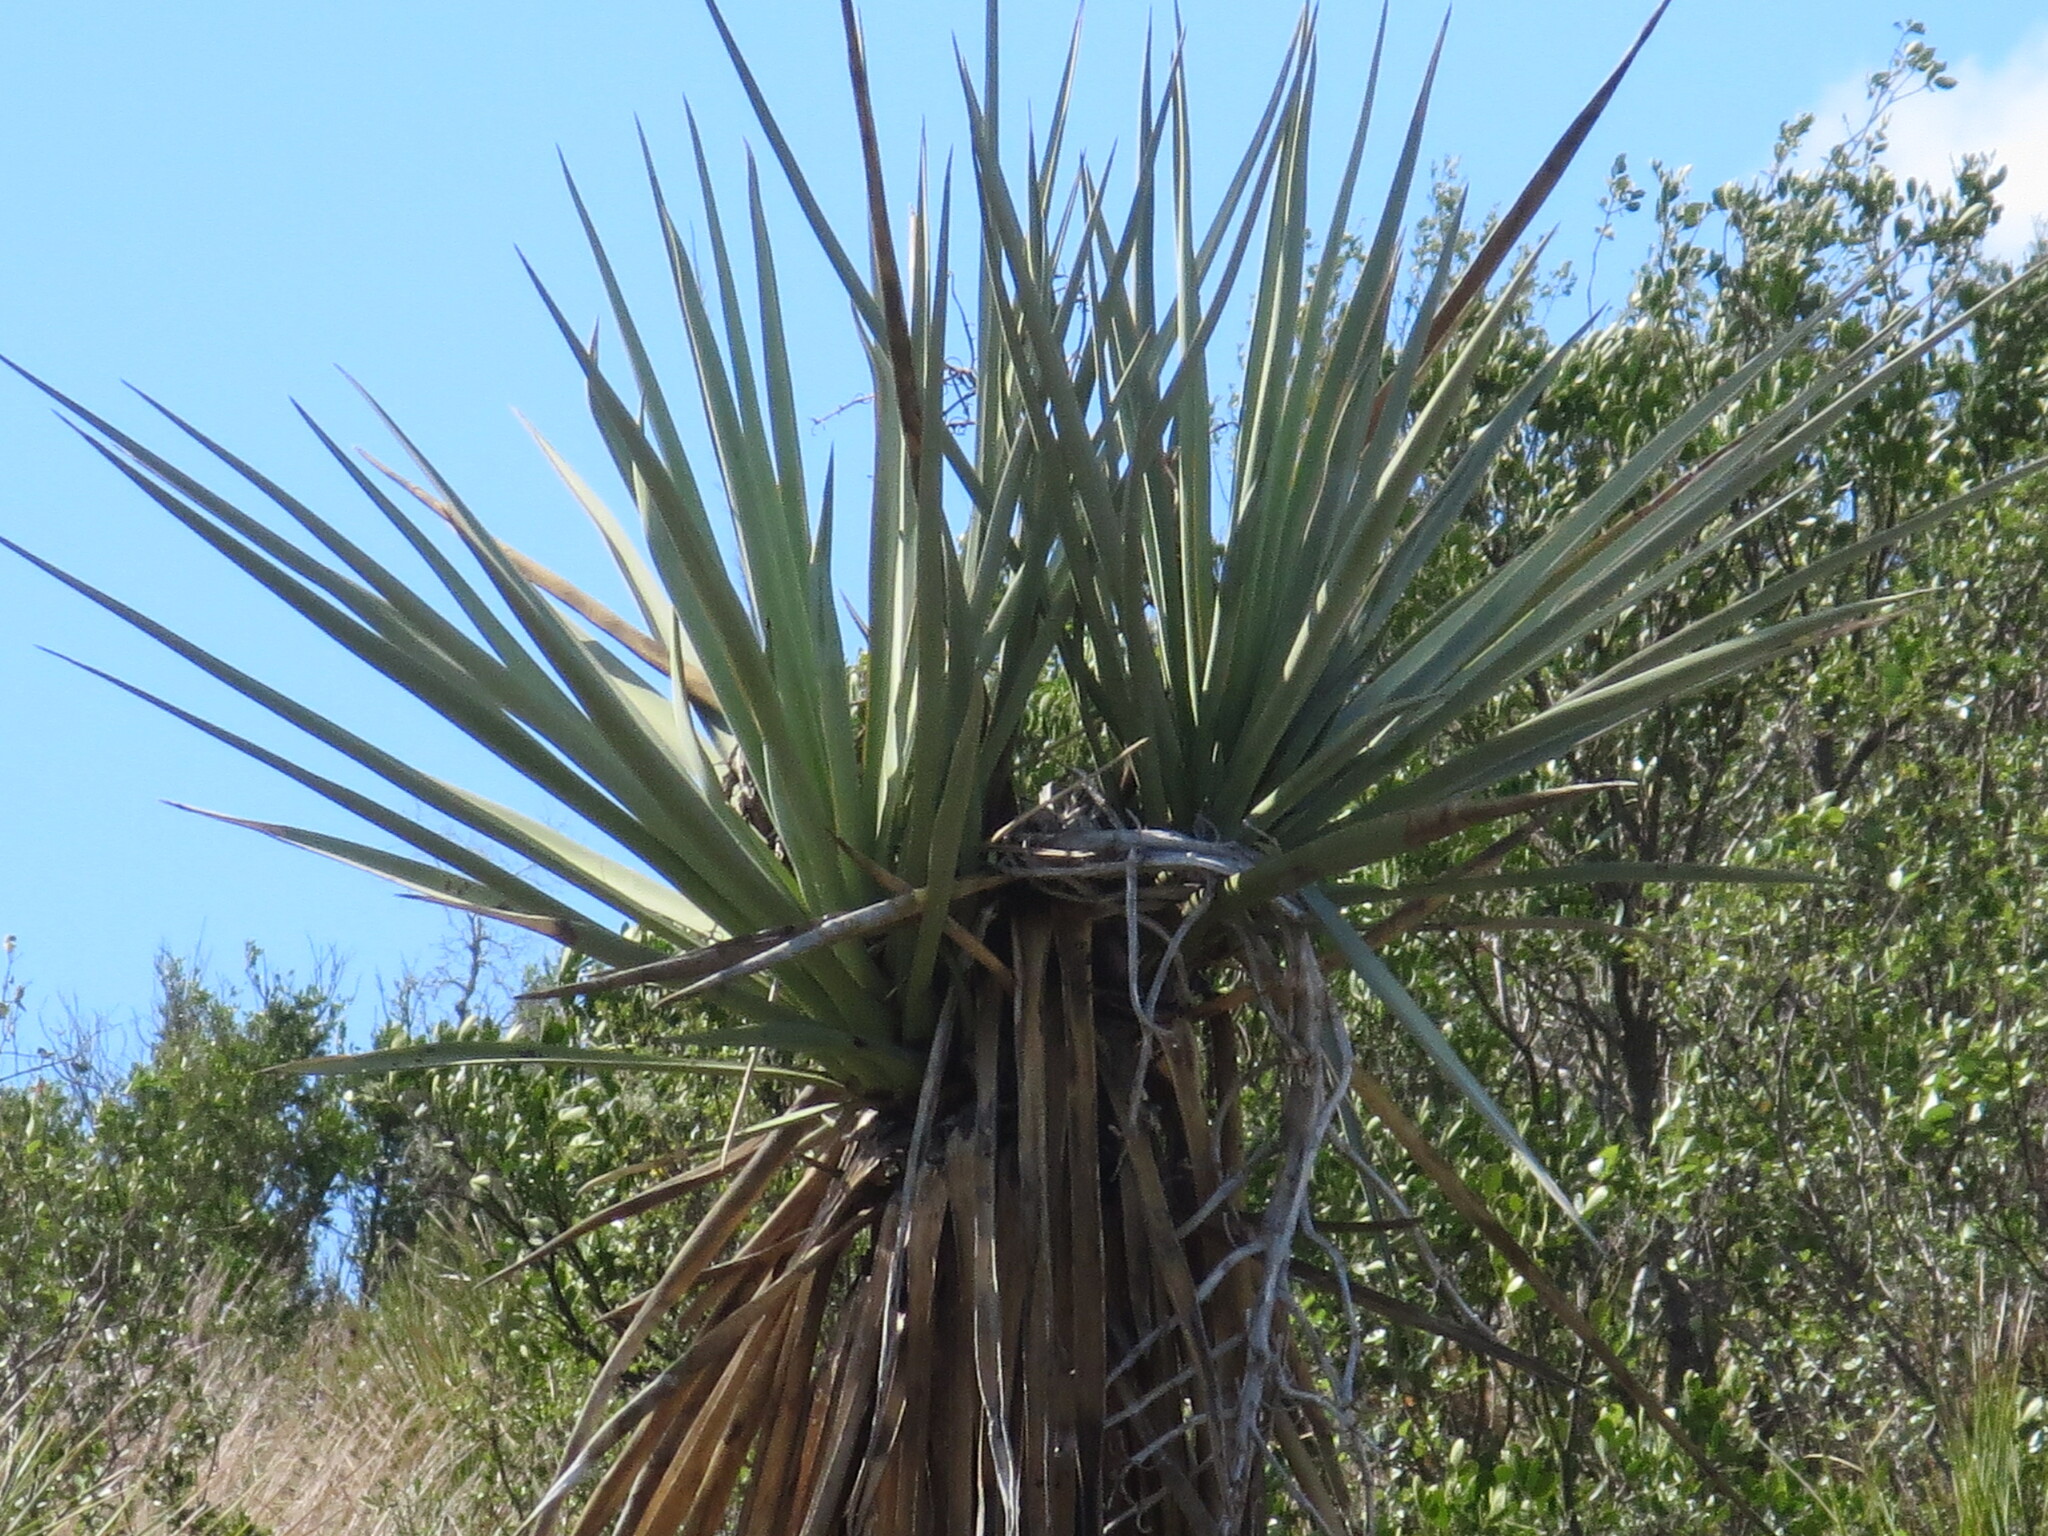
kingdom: Plantae
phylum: Tracheophyta
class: Liliopsida
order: Asparagales
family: Asparagaceae
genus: Yucca
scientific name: Yucca treculiana
